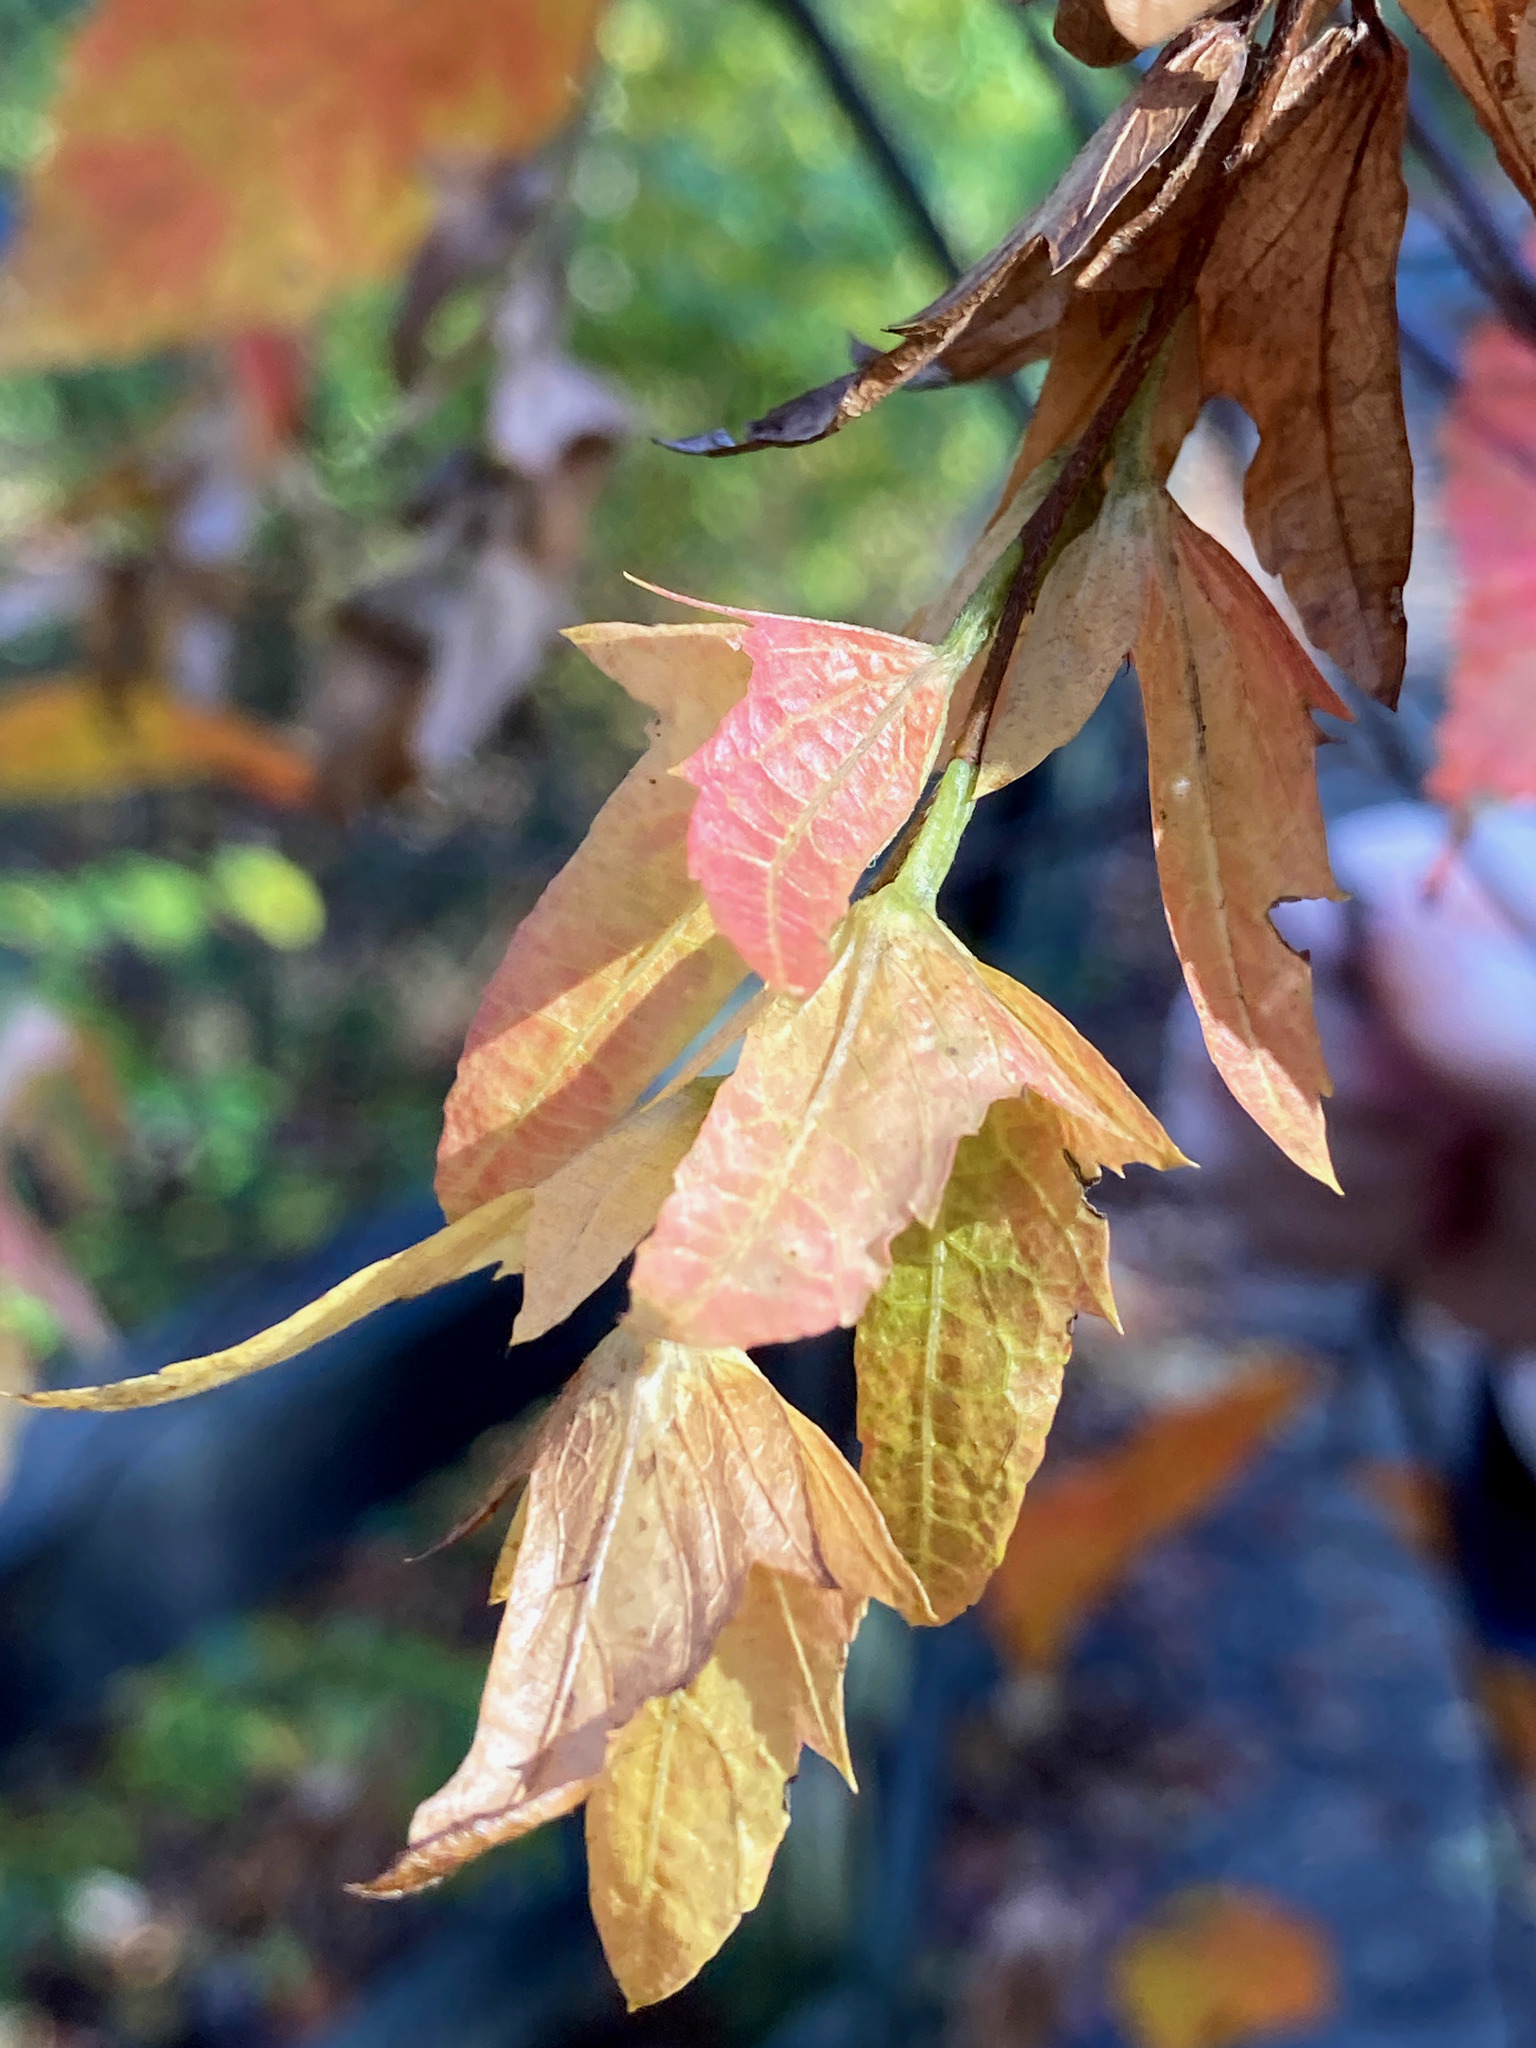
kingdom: Plantae
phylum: Tracheophyta
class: Magnoliopsida
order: Fagales
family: Betulaceae
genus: Carpinus
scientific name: Carpinus caroliniana
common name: American hornbeam
